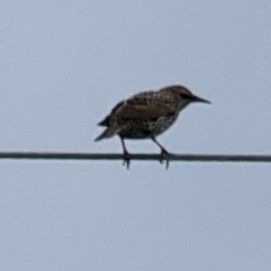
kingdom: Animalia
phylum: Chordata
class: Aves
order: Passeriformes
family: Sturnidae
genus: Sturnus
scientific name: Sturnus vulgaris
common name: Common starling
